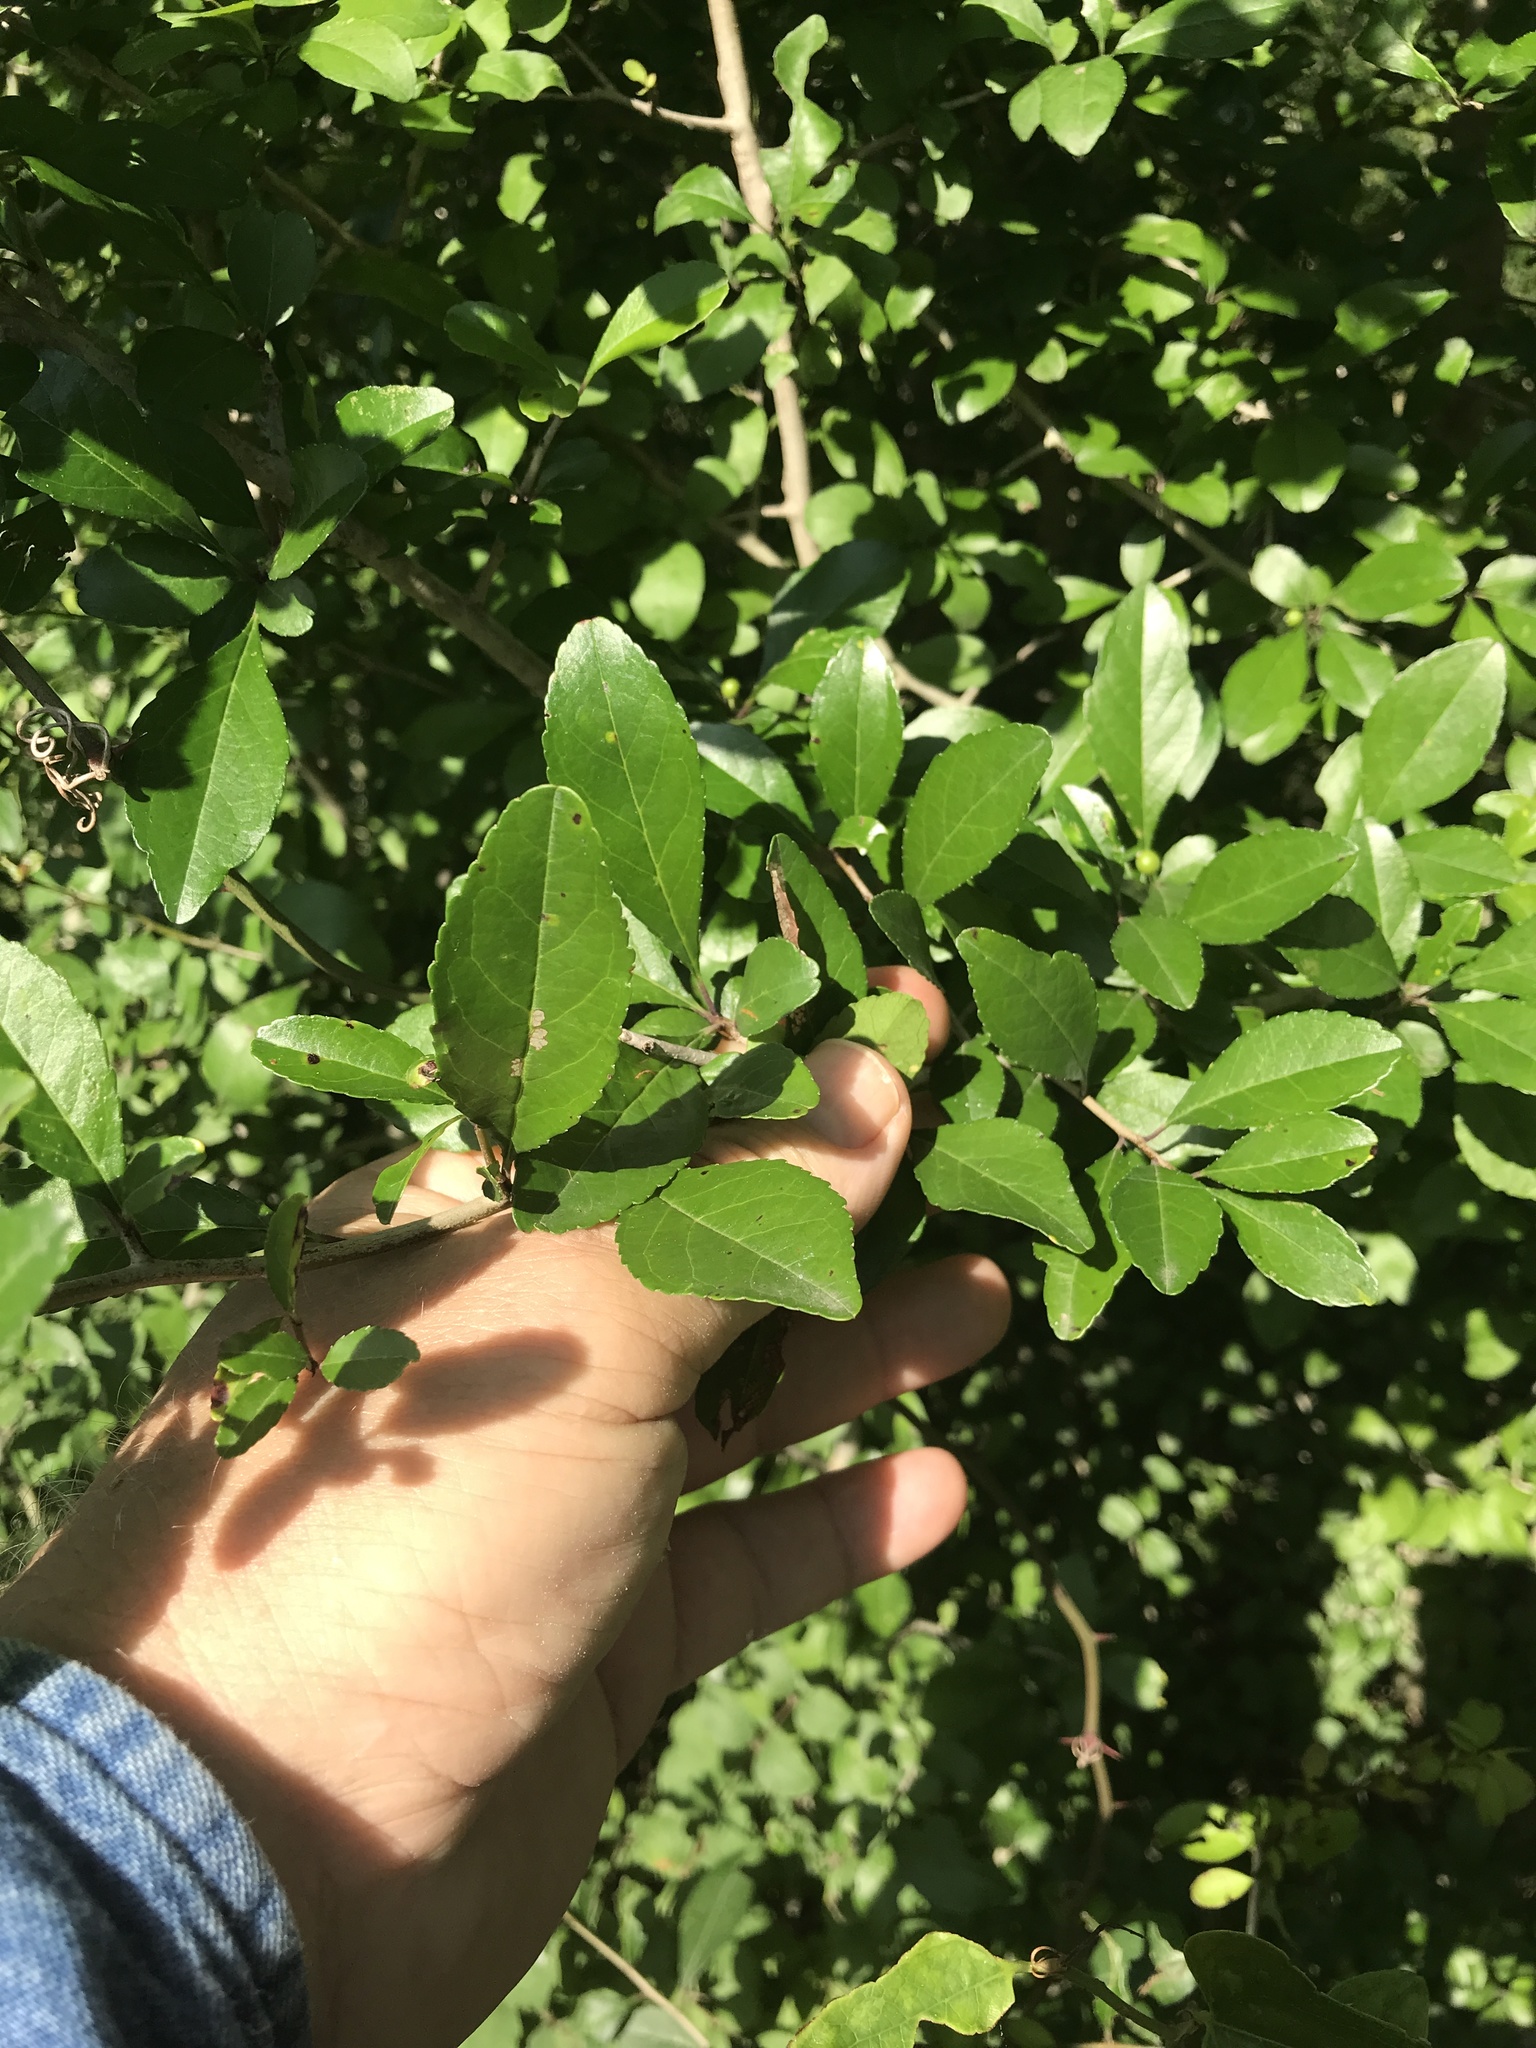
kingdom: Plantae
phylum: Tracheophyta
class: Magnoliopsida
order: Aquifoliales
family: Aquifoliaceae
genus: Ilex
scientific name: Ilex decidua
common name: Possum-haw
